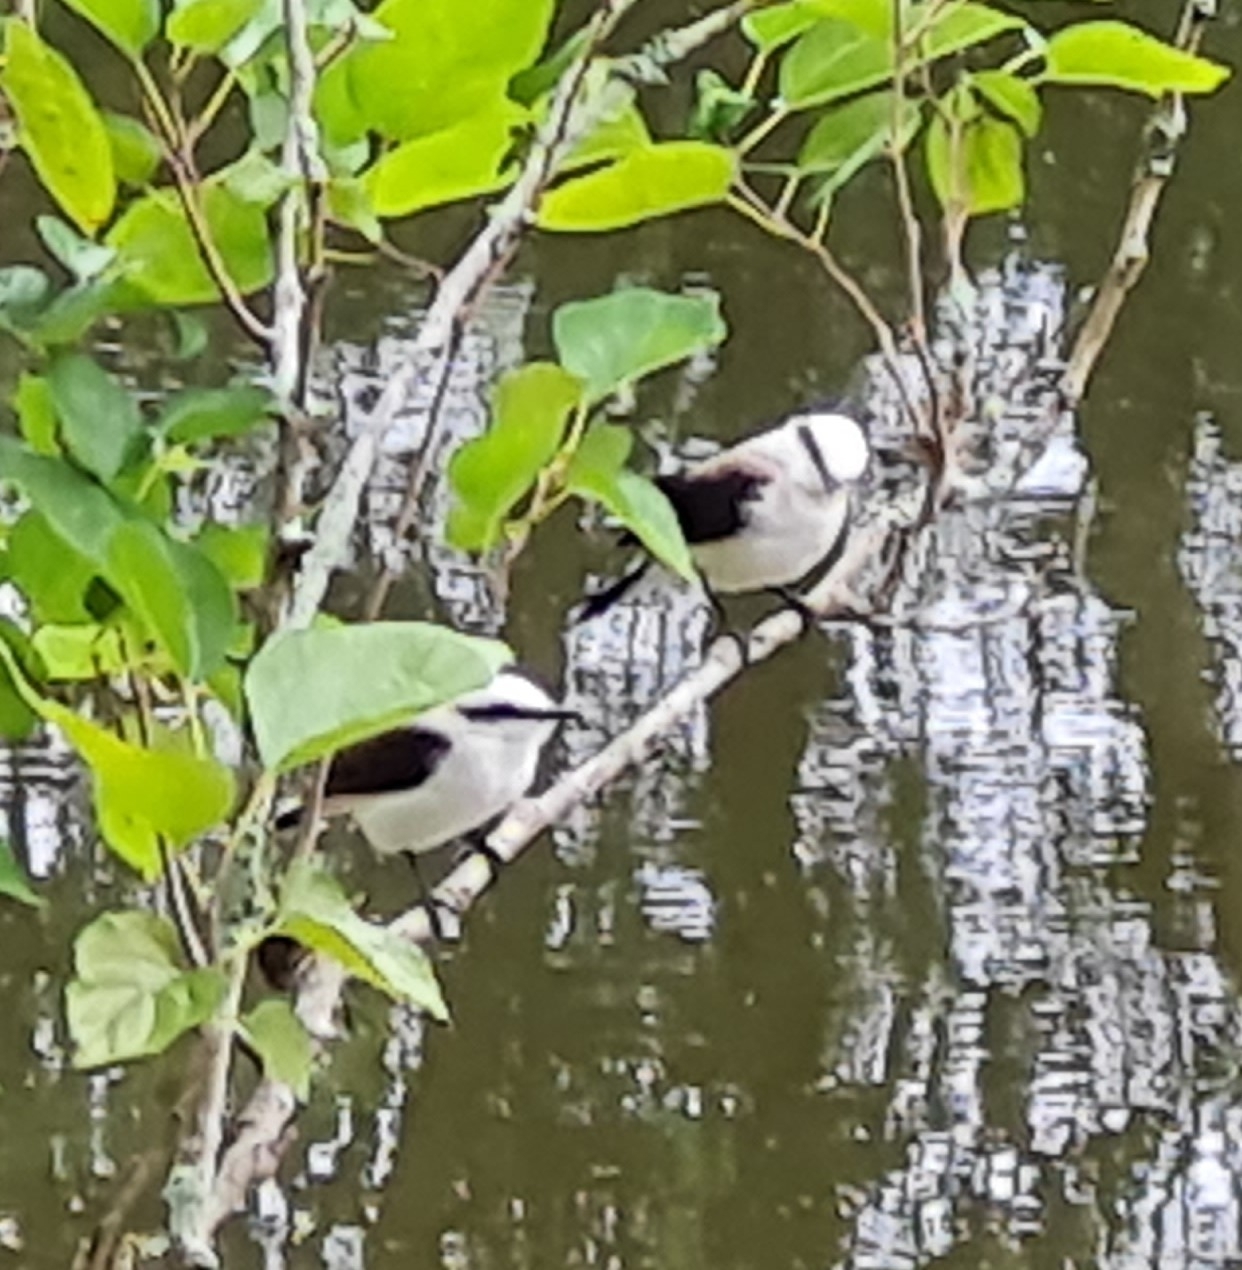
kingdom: Animalia
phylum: Chordata
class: Aves
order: Passeriformes
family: Tyrannidae
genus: Fluvicola
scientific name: Fluvicola nengeta
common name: Masked water tyrant
